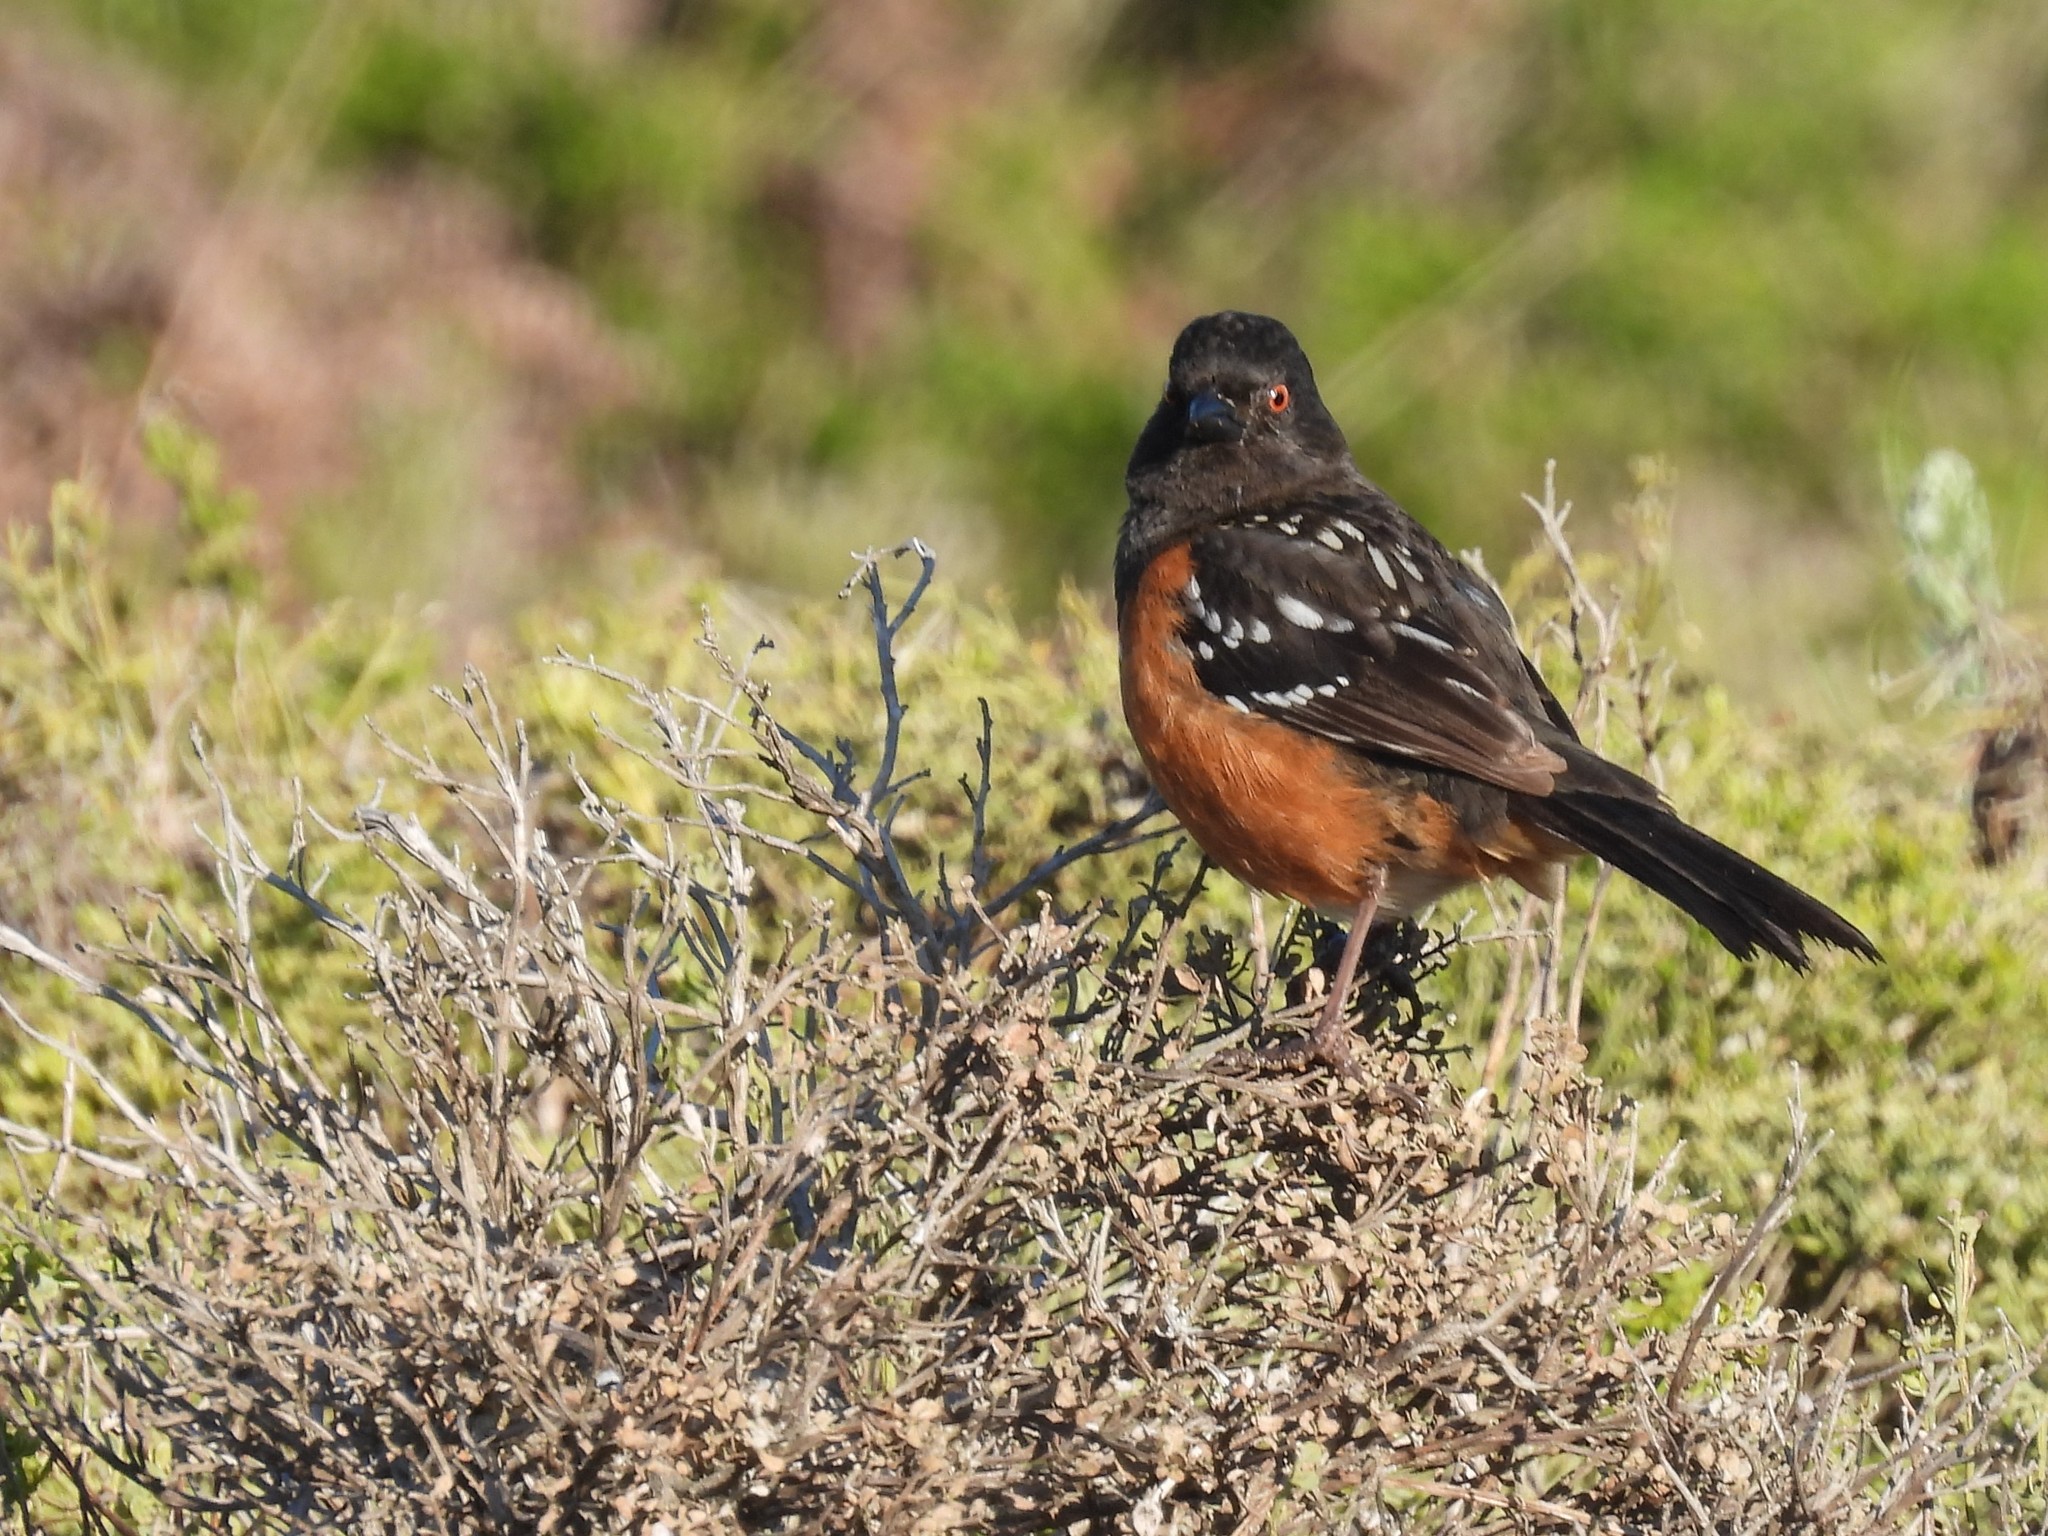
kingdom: Animalia
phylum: Chordata
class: Aves
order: Passeriformes
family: Passerellidae
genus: Pipilo
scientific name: Pipilo maculatus
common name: Spotted towhee
